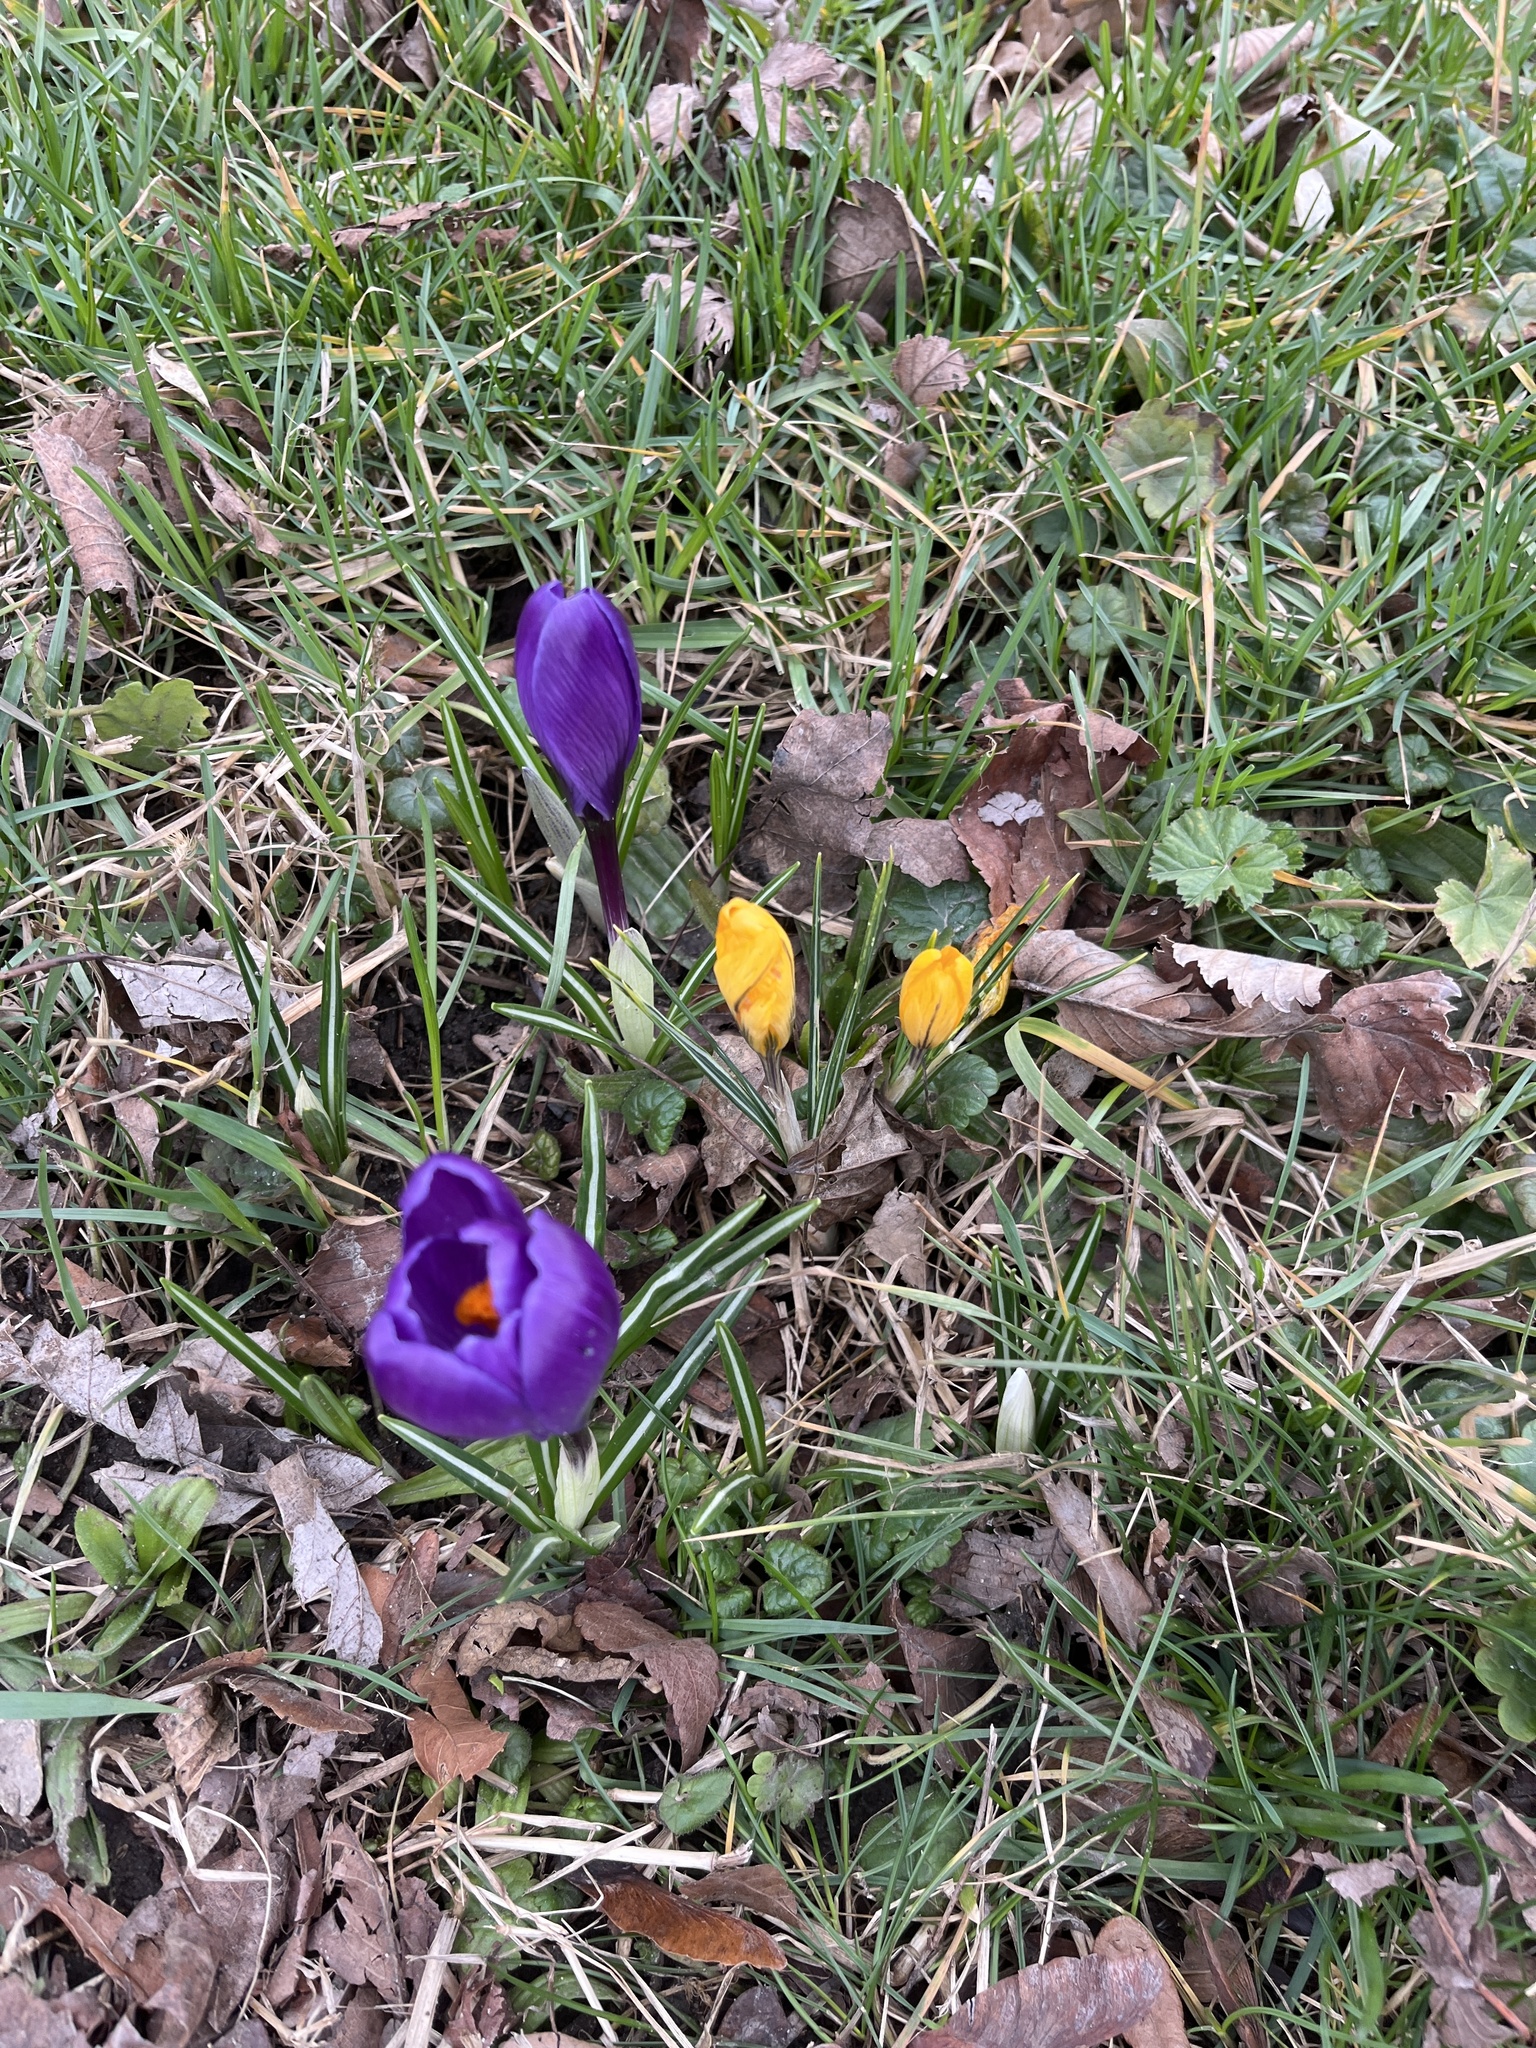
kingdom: Plantae
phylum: Tracheophyta
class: Liliopsida
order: Asparagales
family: Iridaceae
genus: Crocus
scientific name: Crocus neapolitanus
